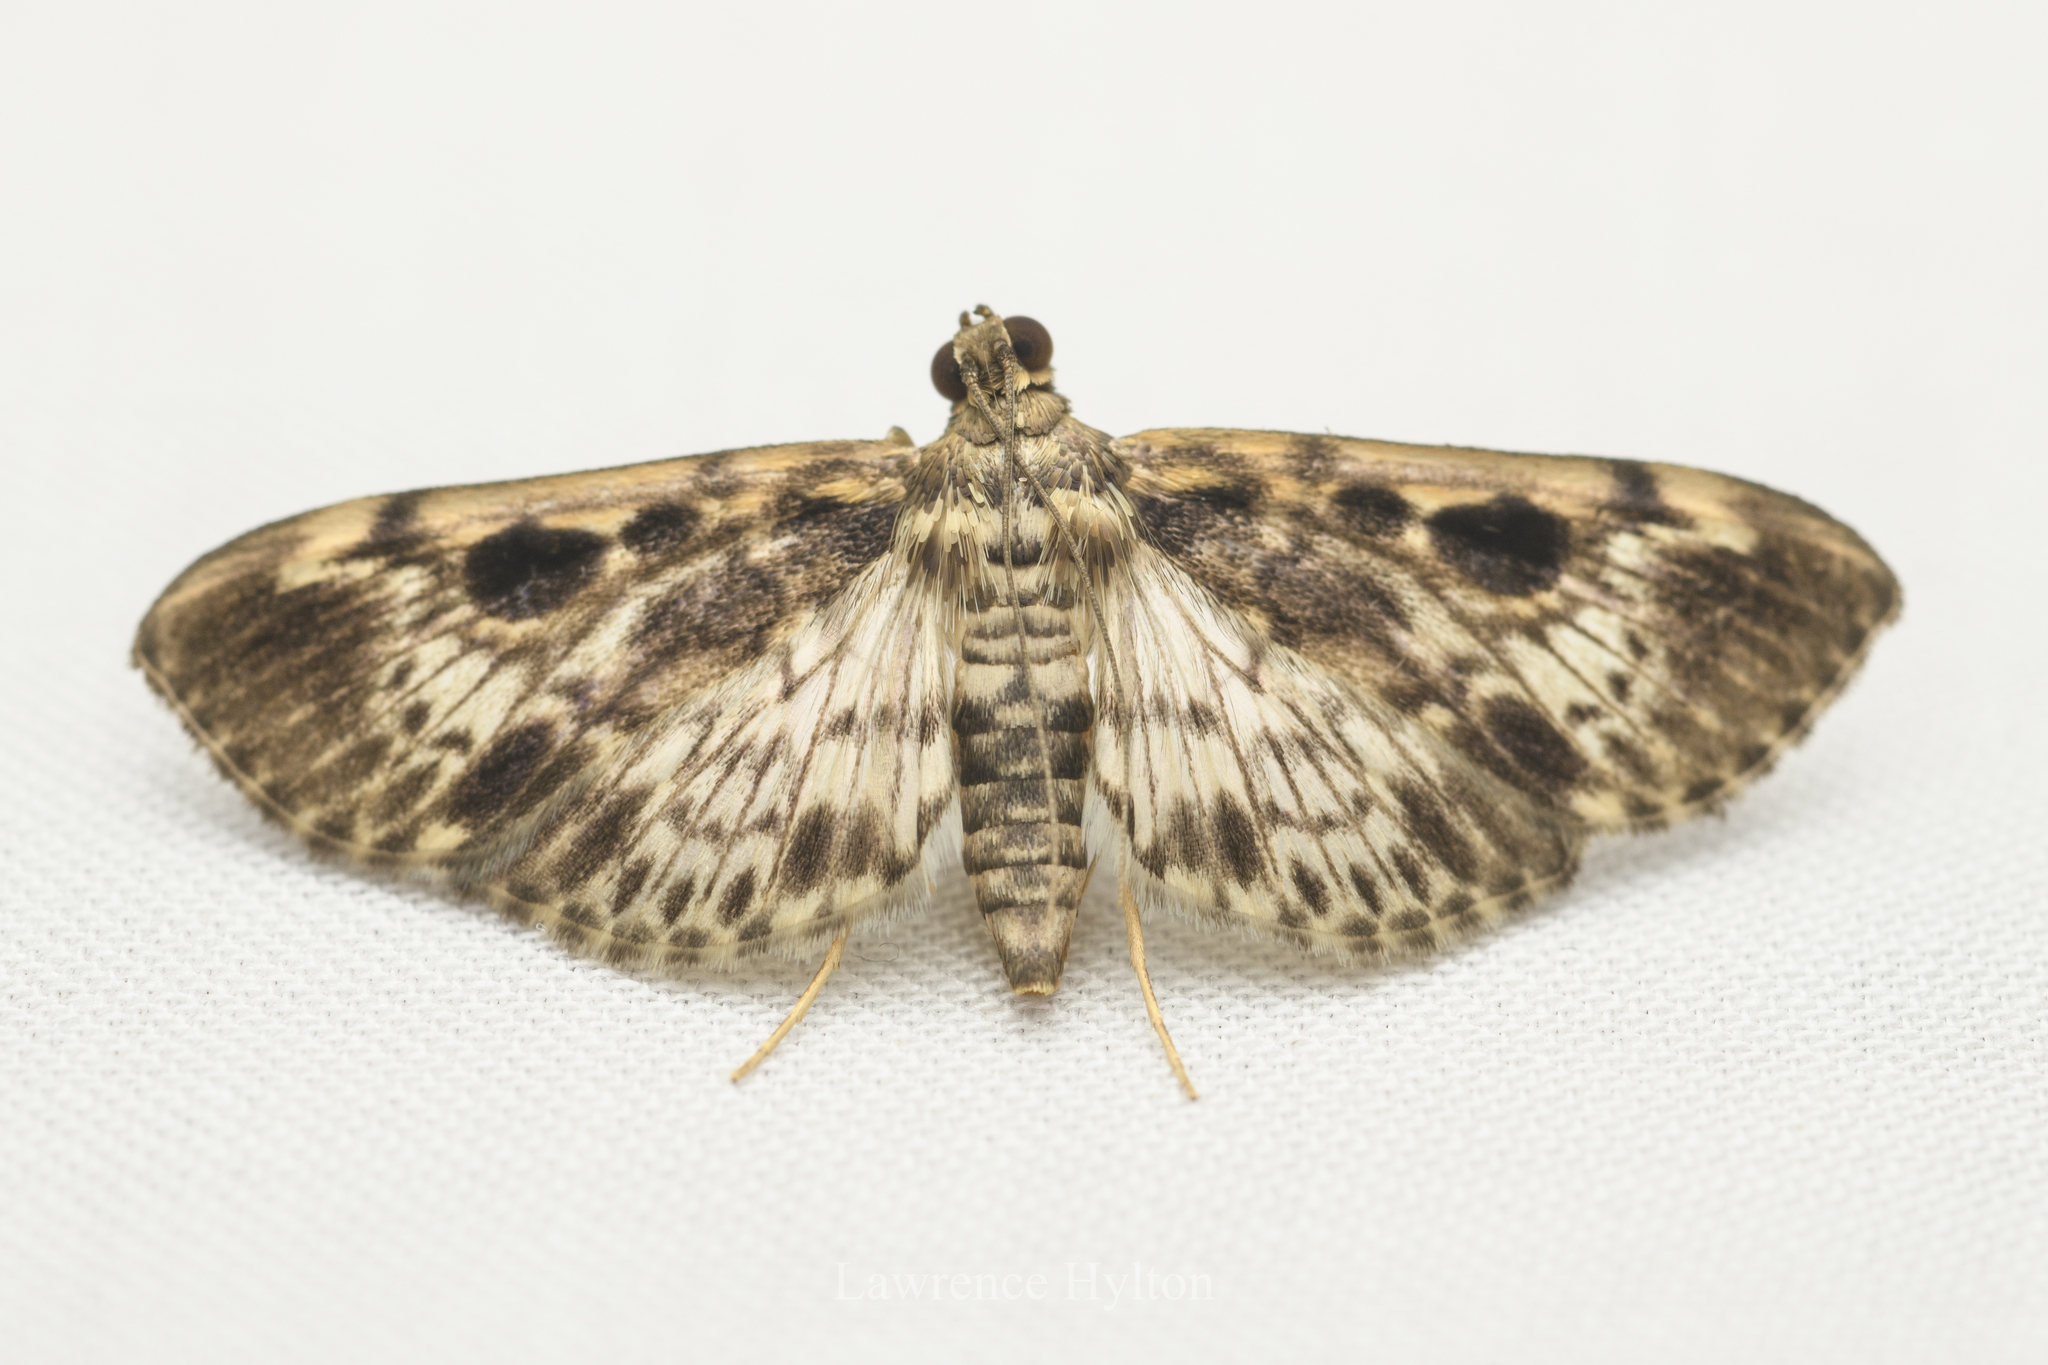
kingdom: Animalia
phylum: Arthropoda
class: Insecta
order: Lepidoptera
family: Crambidae
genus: Rhimphaliodes
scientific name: Rhimphaliodes macrostigma
